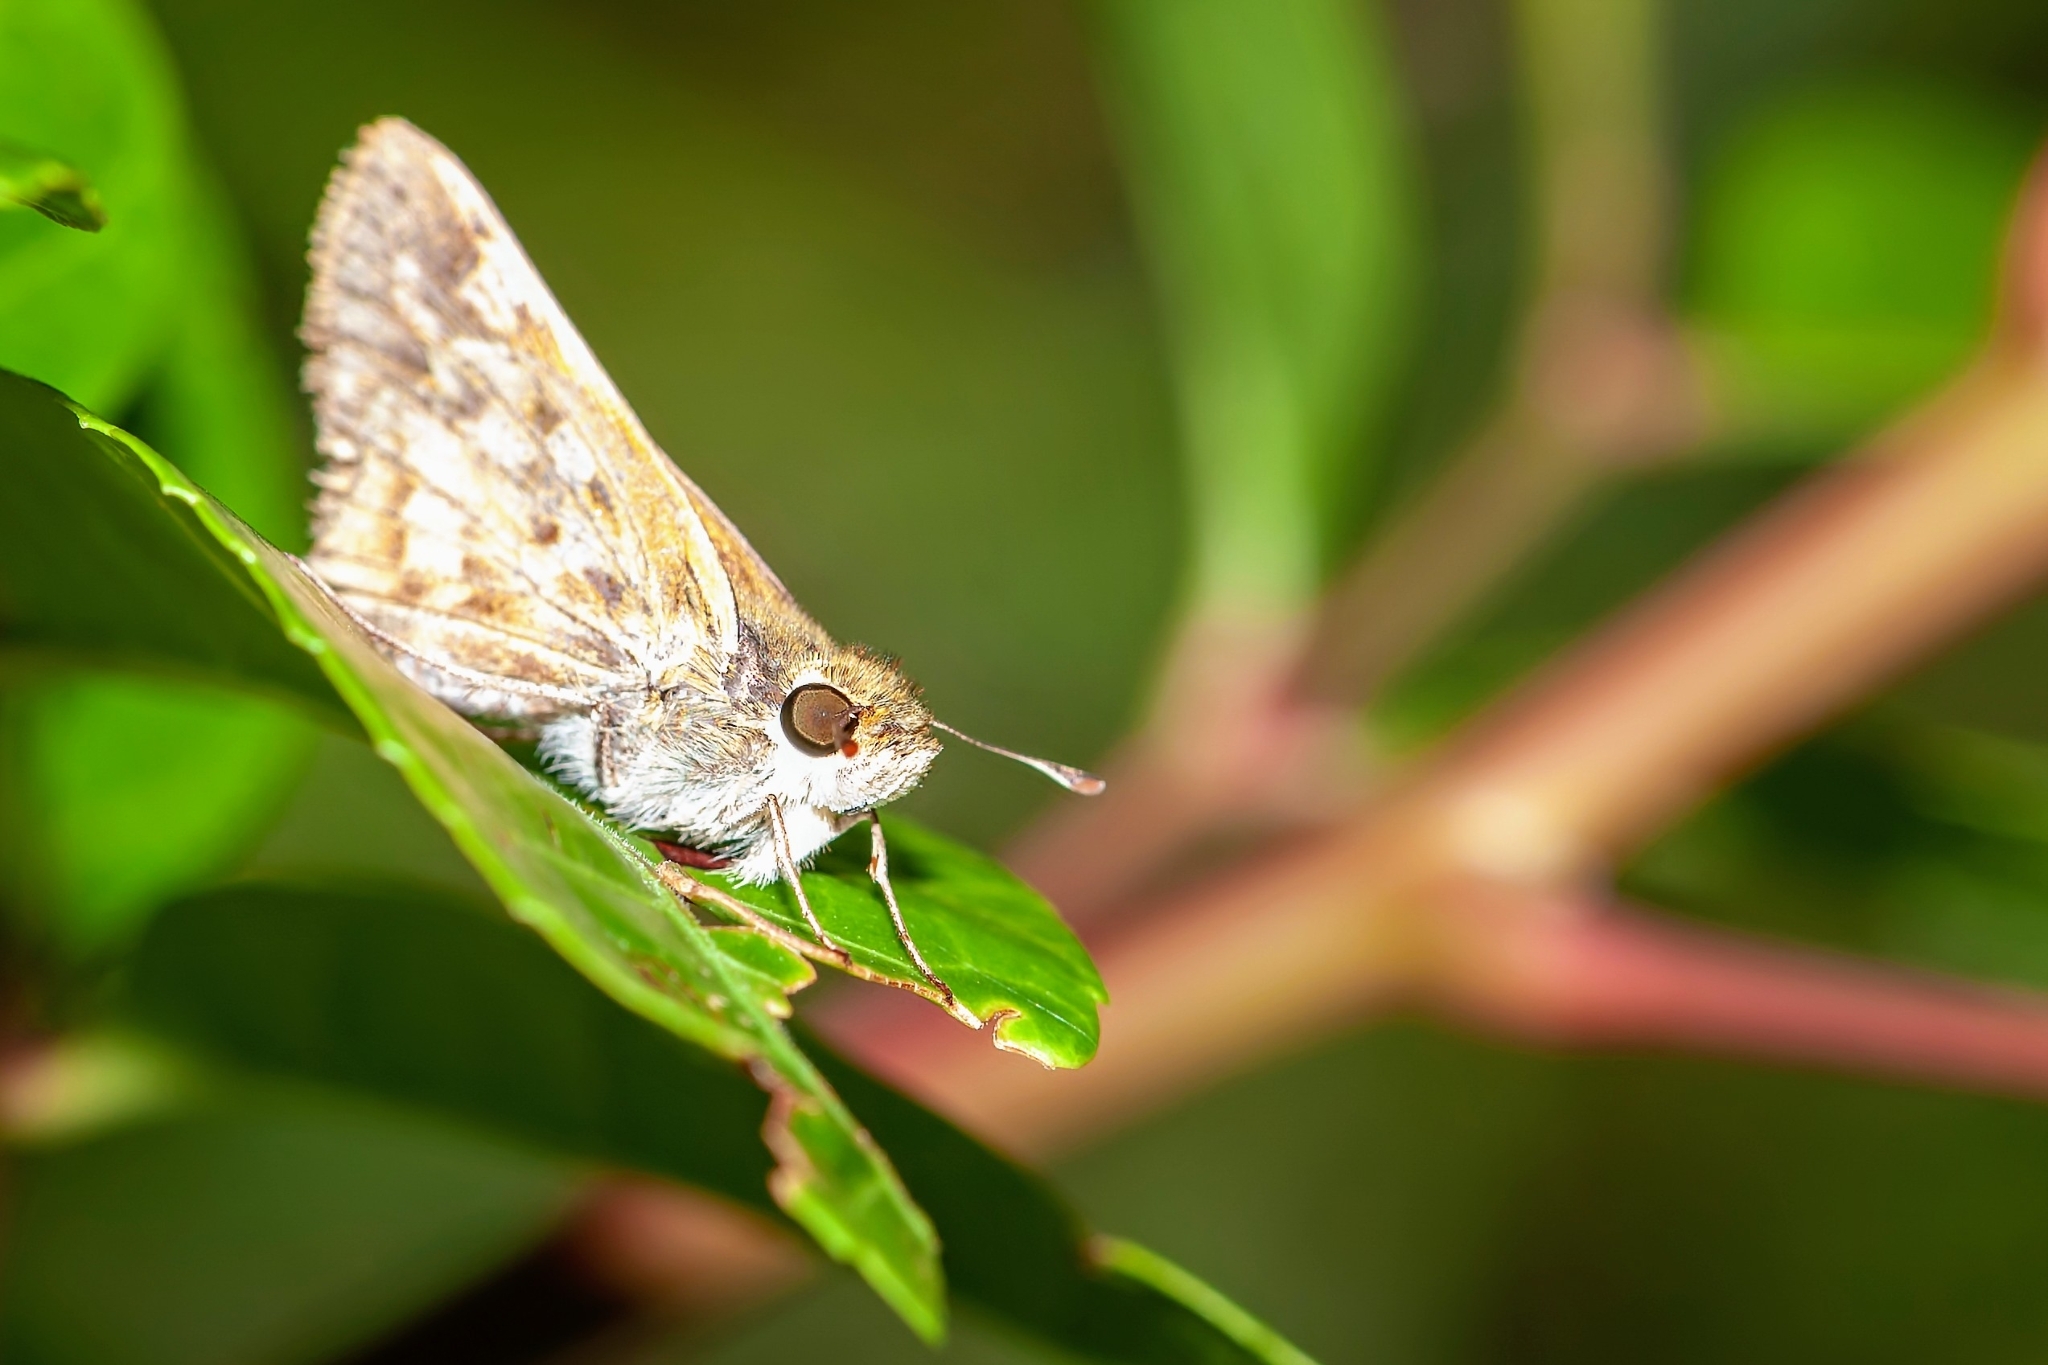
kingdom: Animalia
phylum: Arthropoda
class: Insecta
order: Lepidoptera
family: Hesperiidae
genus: Hylephila
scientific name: Hylephila phyleus
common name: Fiery skipper
